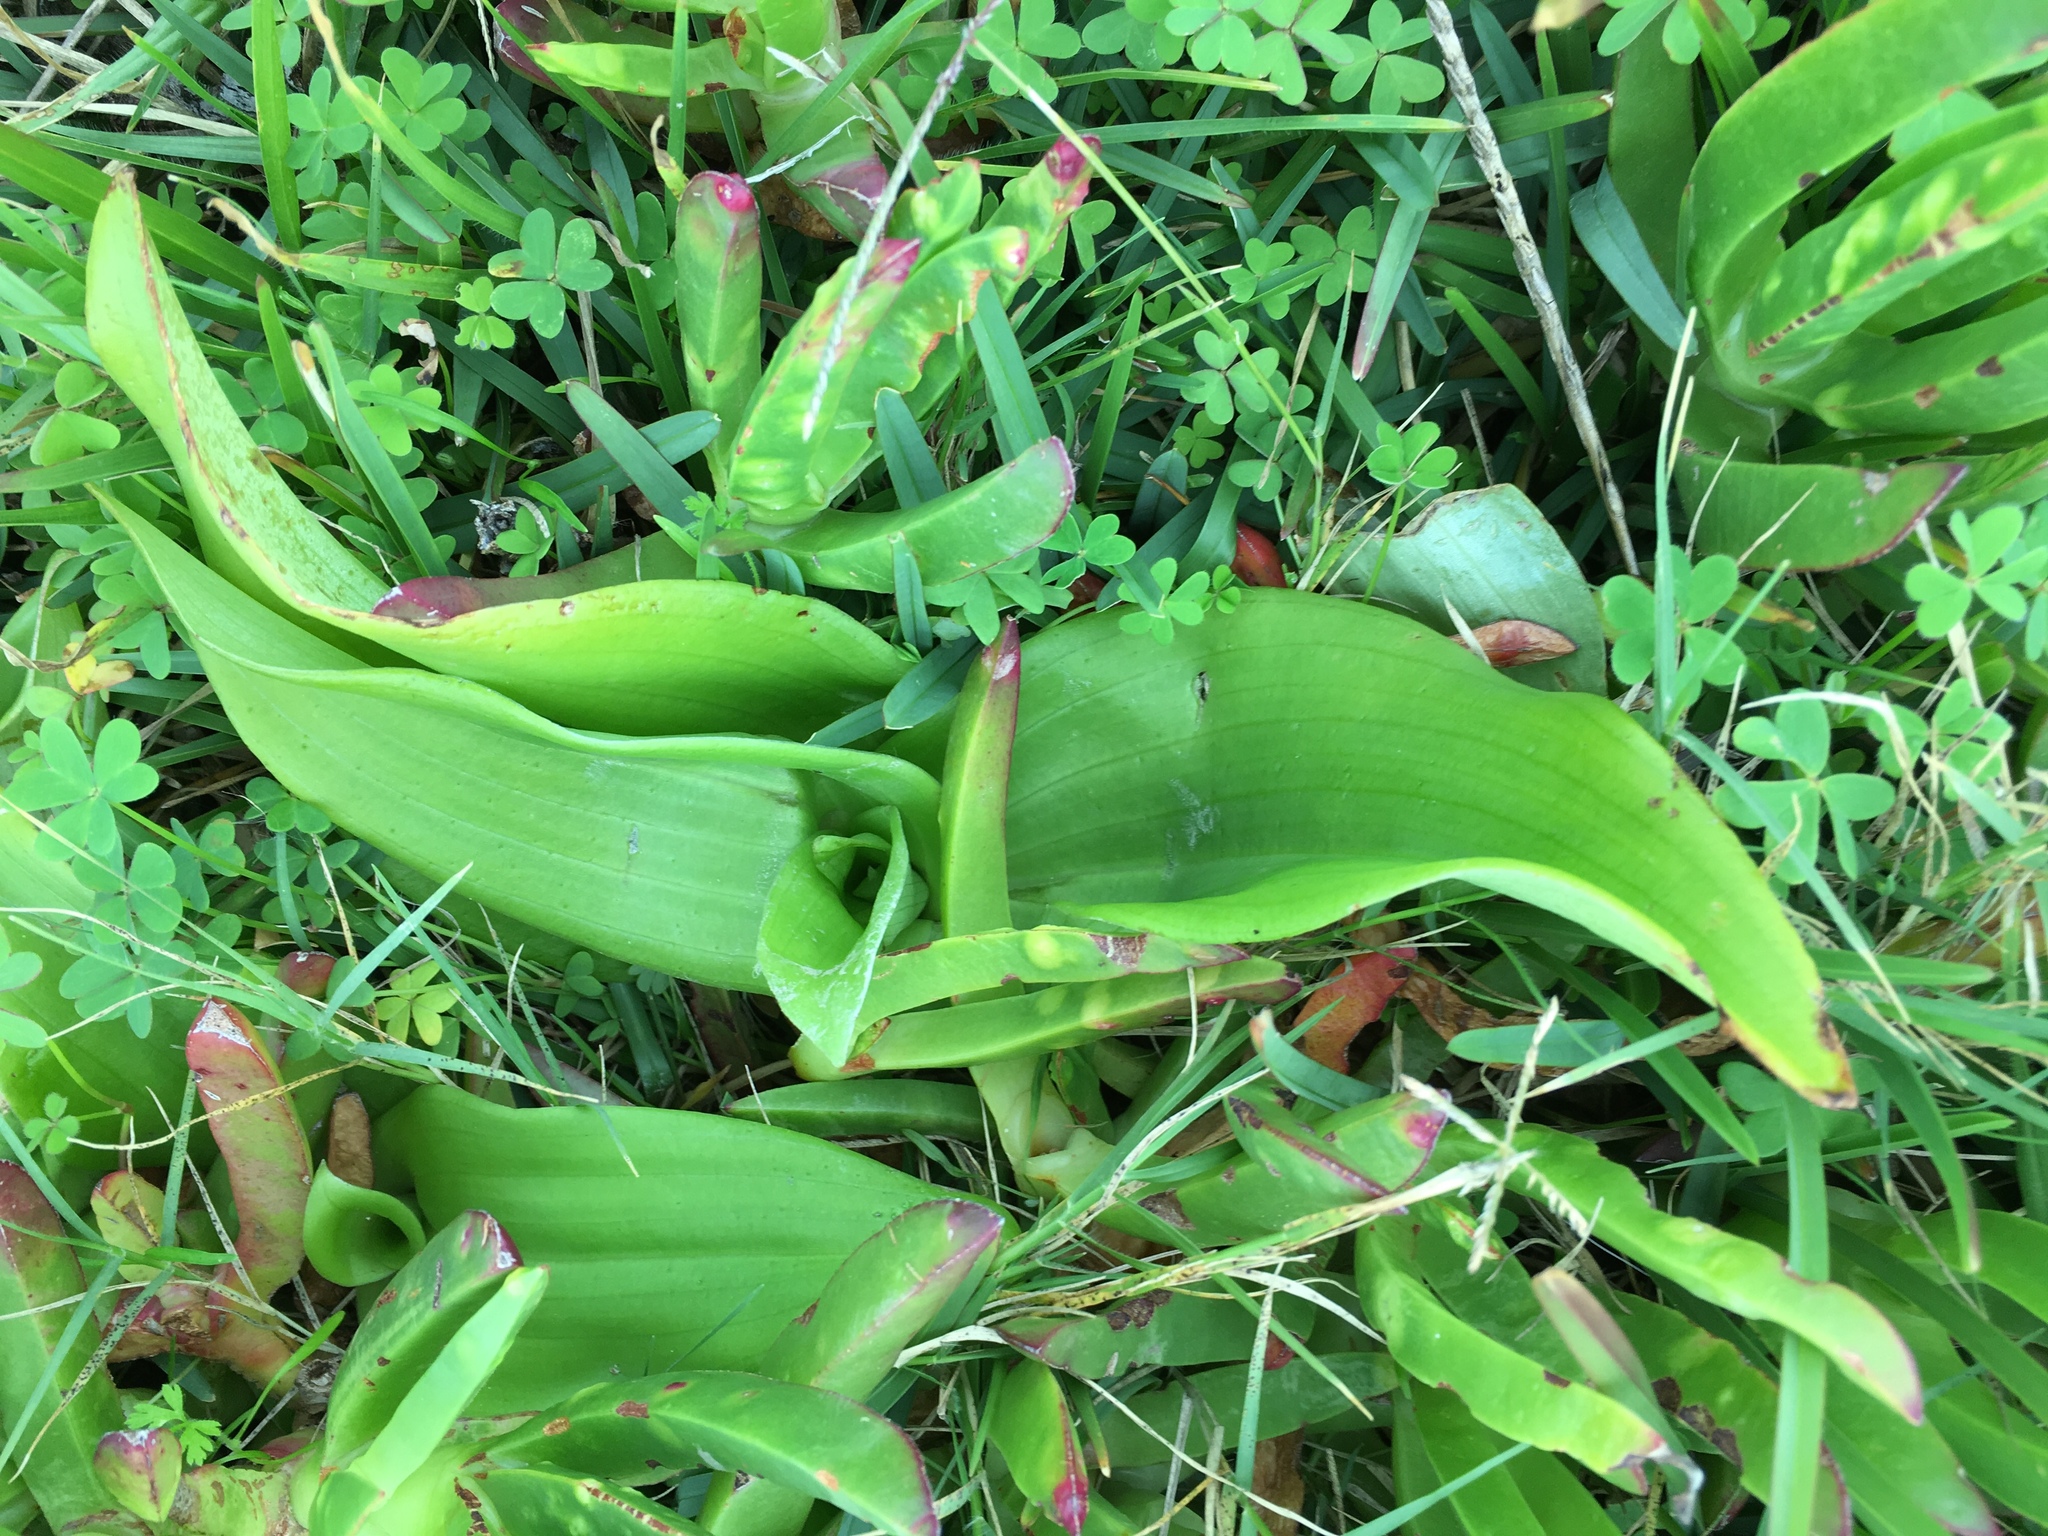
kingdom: Plantae
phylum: Tracheophyta
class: Liliopsida
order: Asparagales
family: Orchidaceae
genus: Satyrium
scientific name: Satyrium odorum
